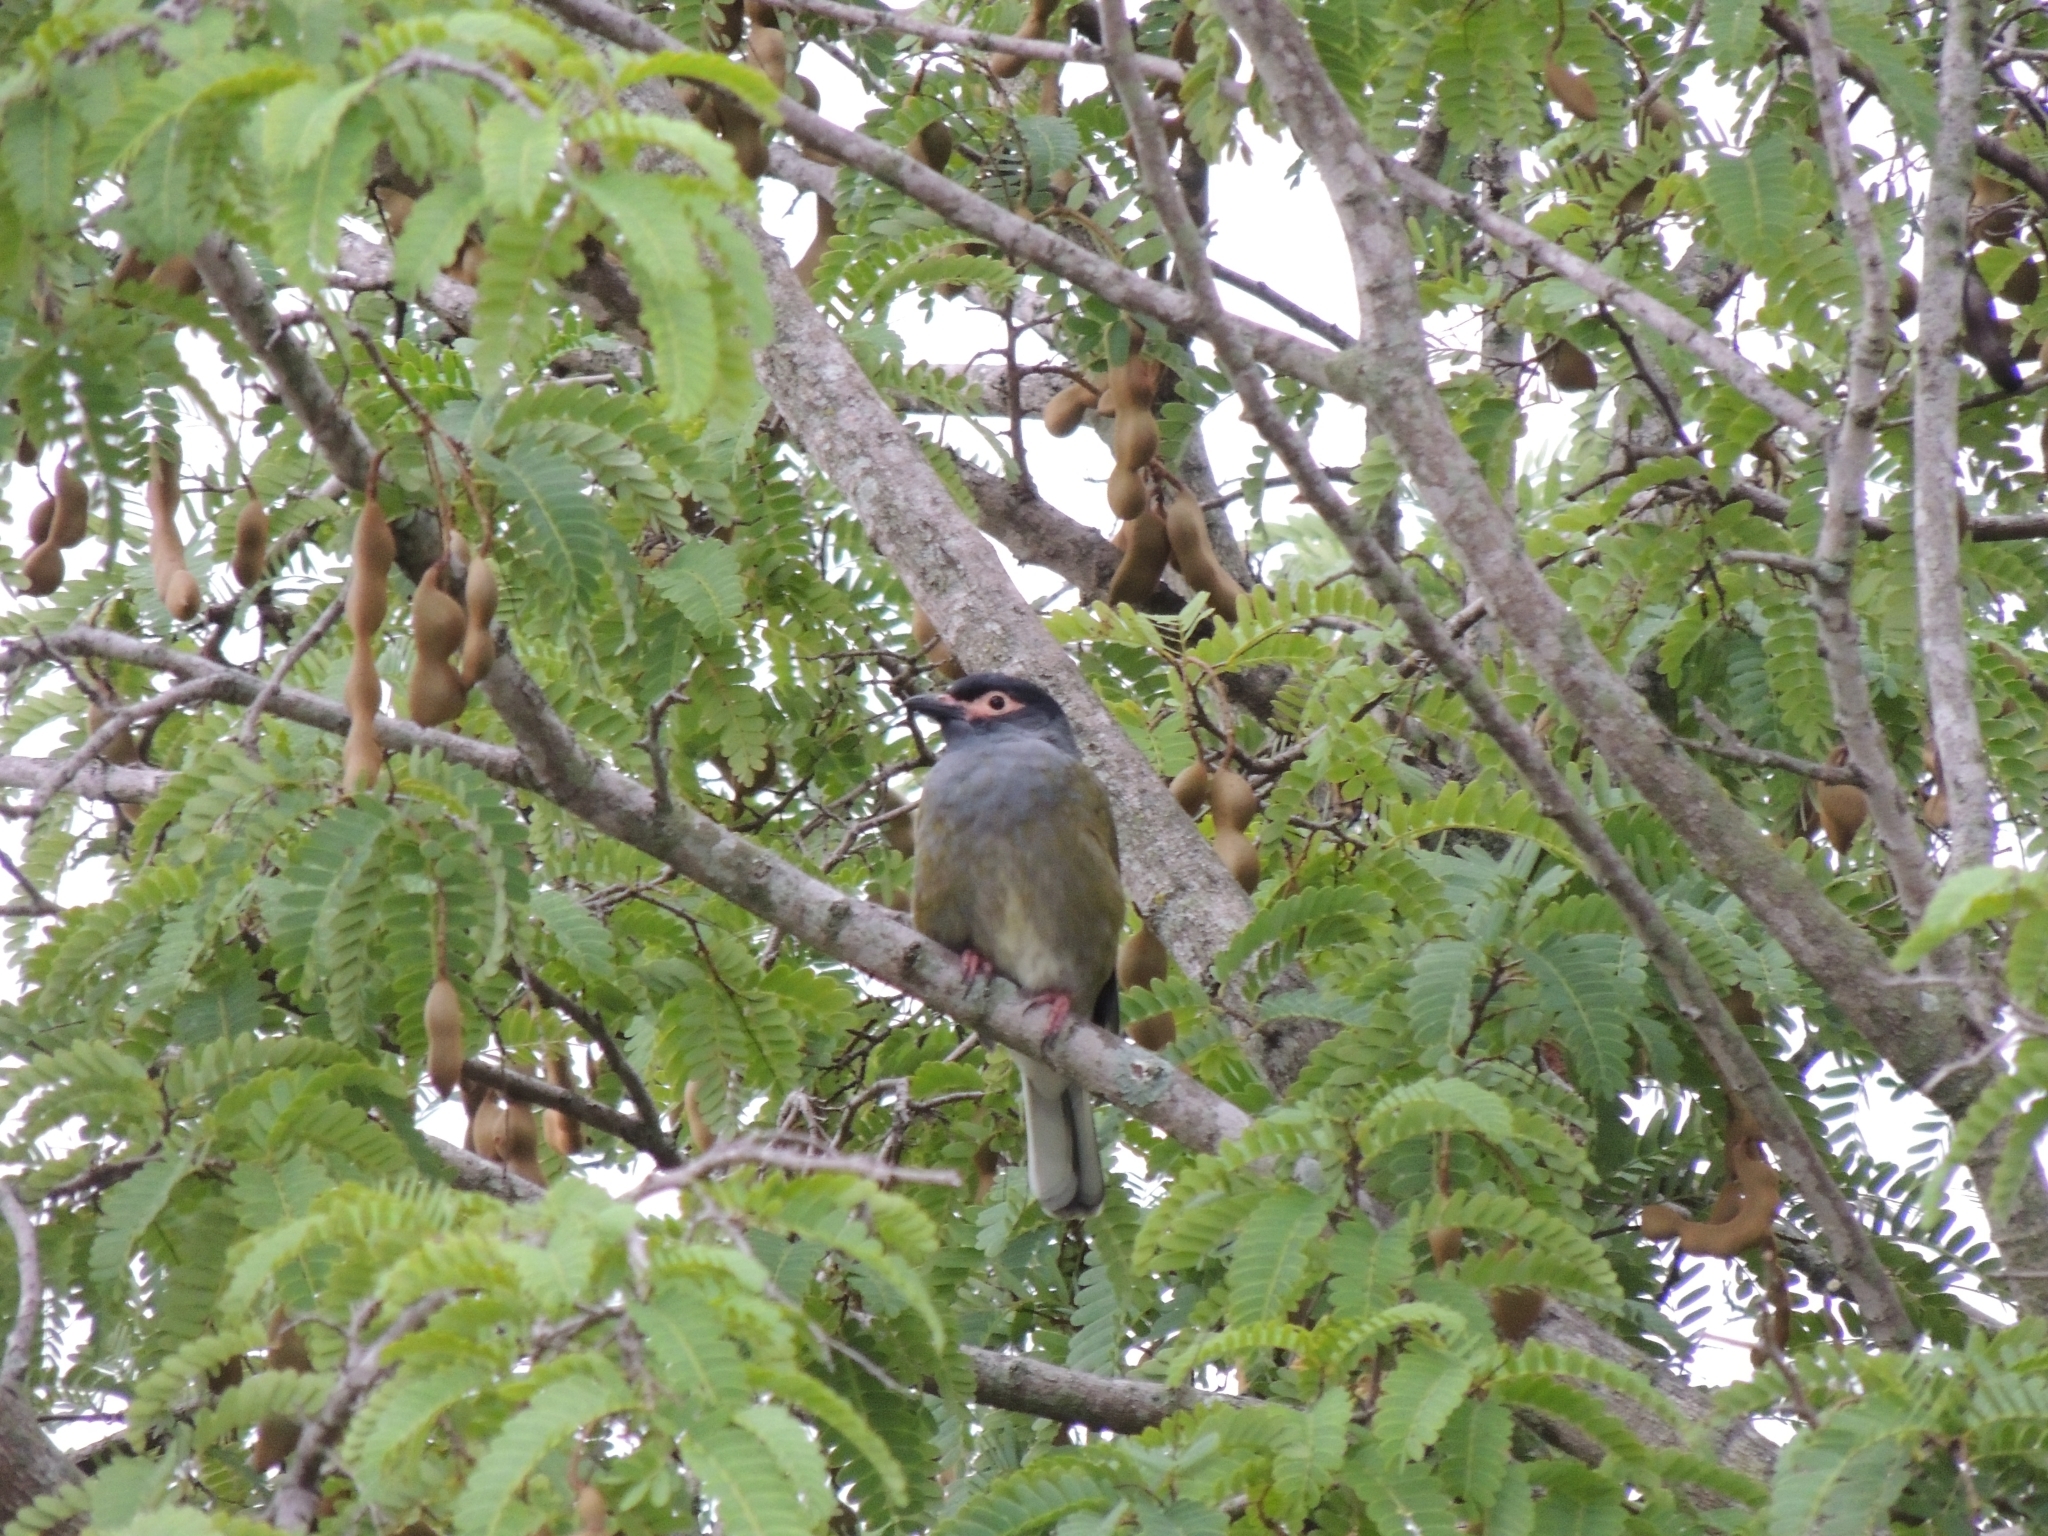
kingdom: Animalia
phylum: Chordata
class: Aves
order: Passeriformes
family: Oriolidae
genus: Sphecotheres
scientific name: Sphecotheres vieilloti
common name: Australasian figbird
